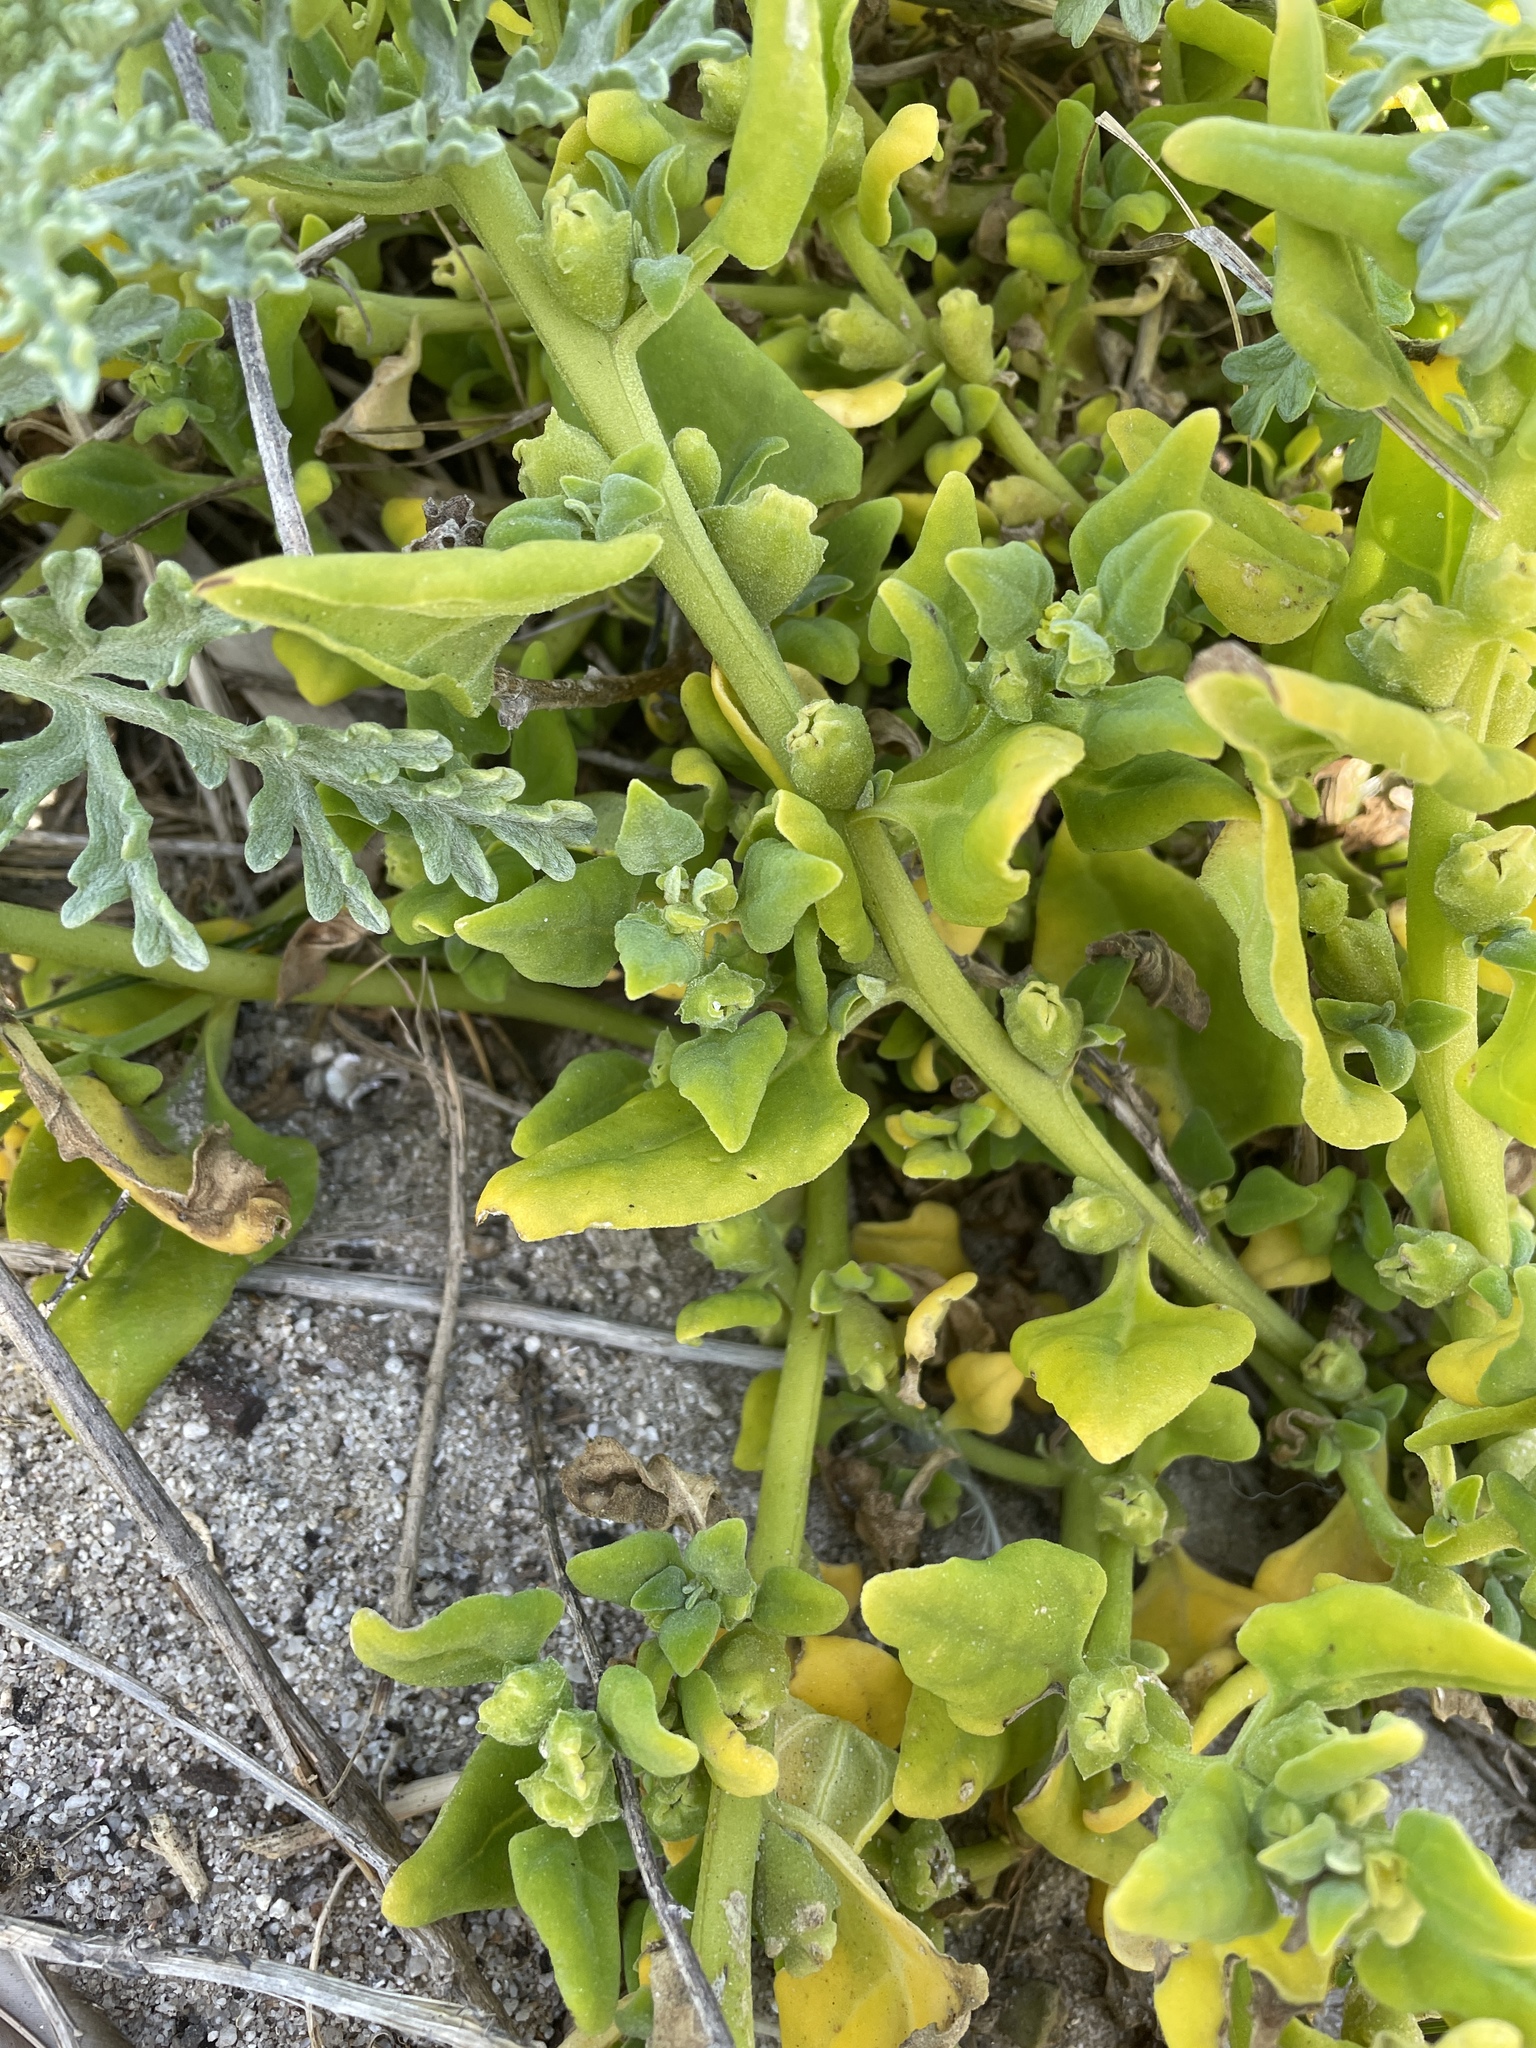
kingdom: Plantae
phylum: Tracheophyta
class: Magnoliopsida
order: Caryophyllales
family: Aizoaceae
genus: Tetragonia
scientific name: Tetragonia tetragonoides
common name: New zealand-spinach
